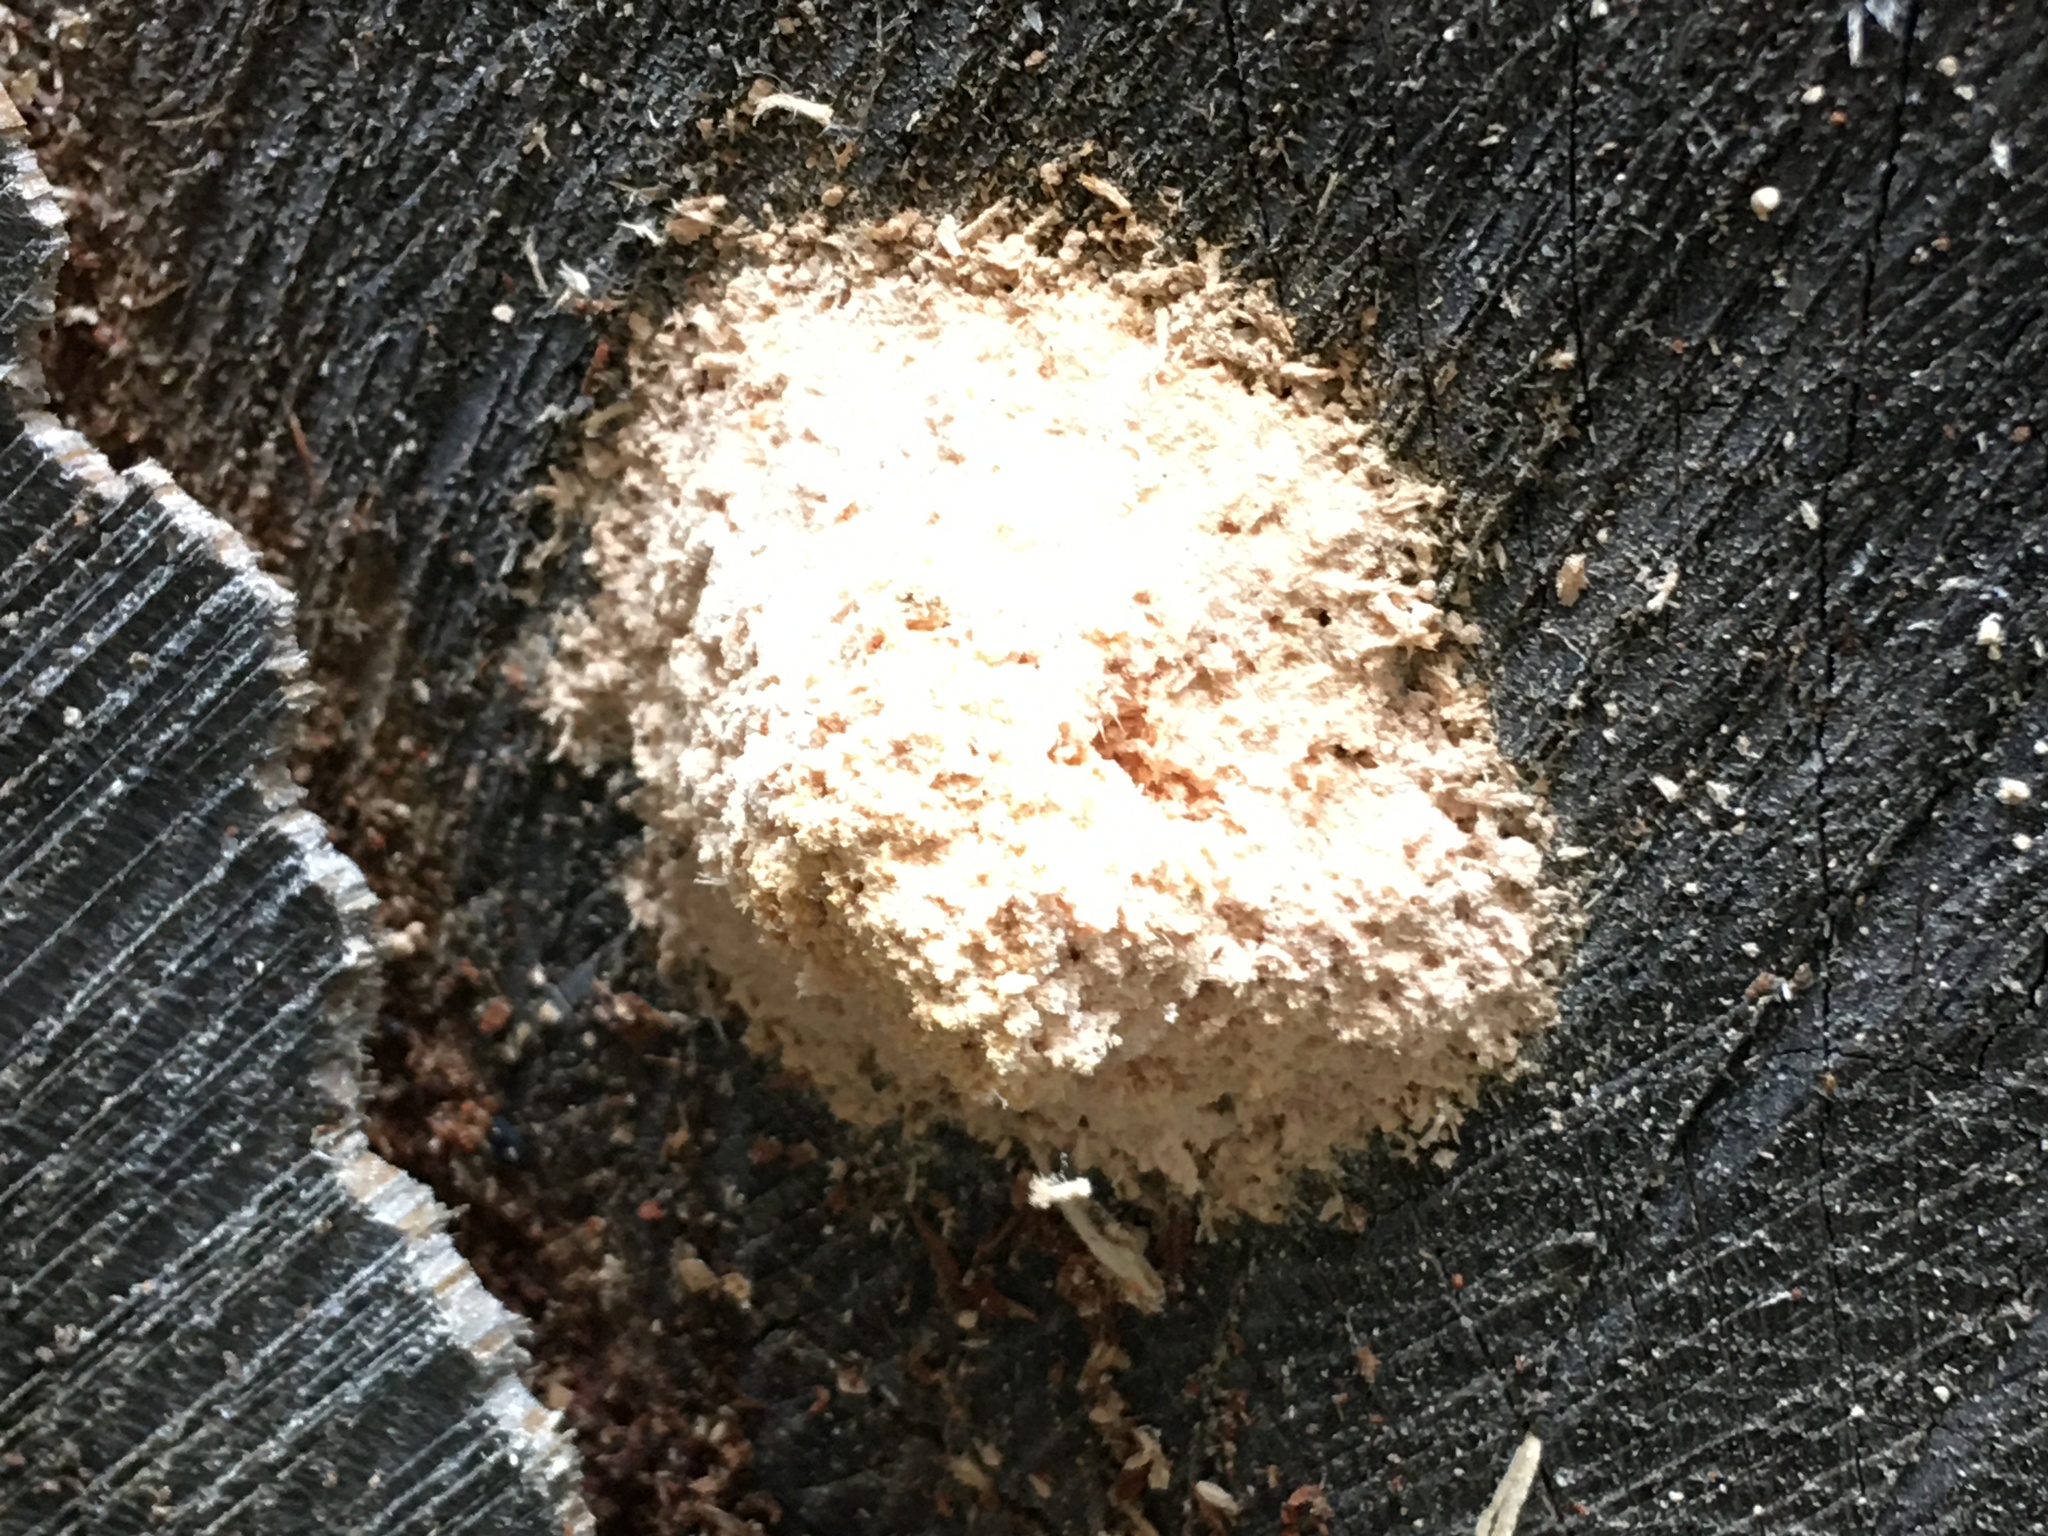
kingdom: Protozoa
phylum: Mycetozoa
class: Myxomycetes
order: Physarales
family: Physaraceae
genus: Didymium
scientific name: Didymium
